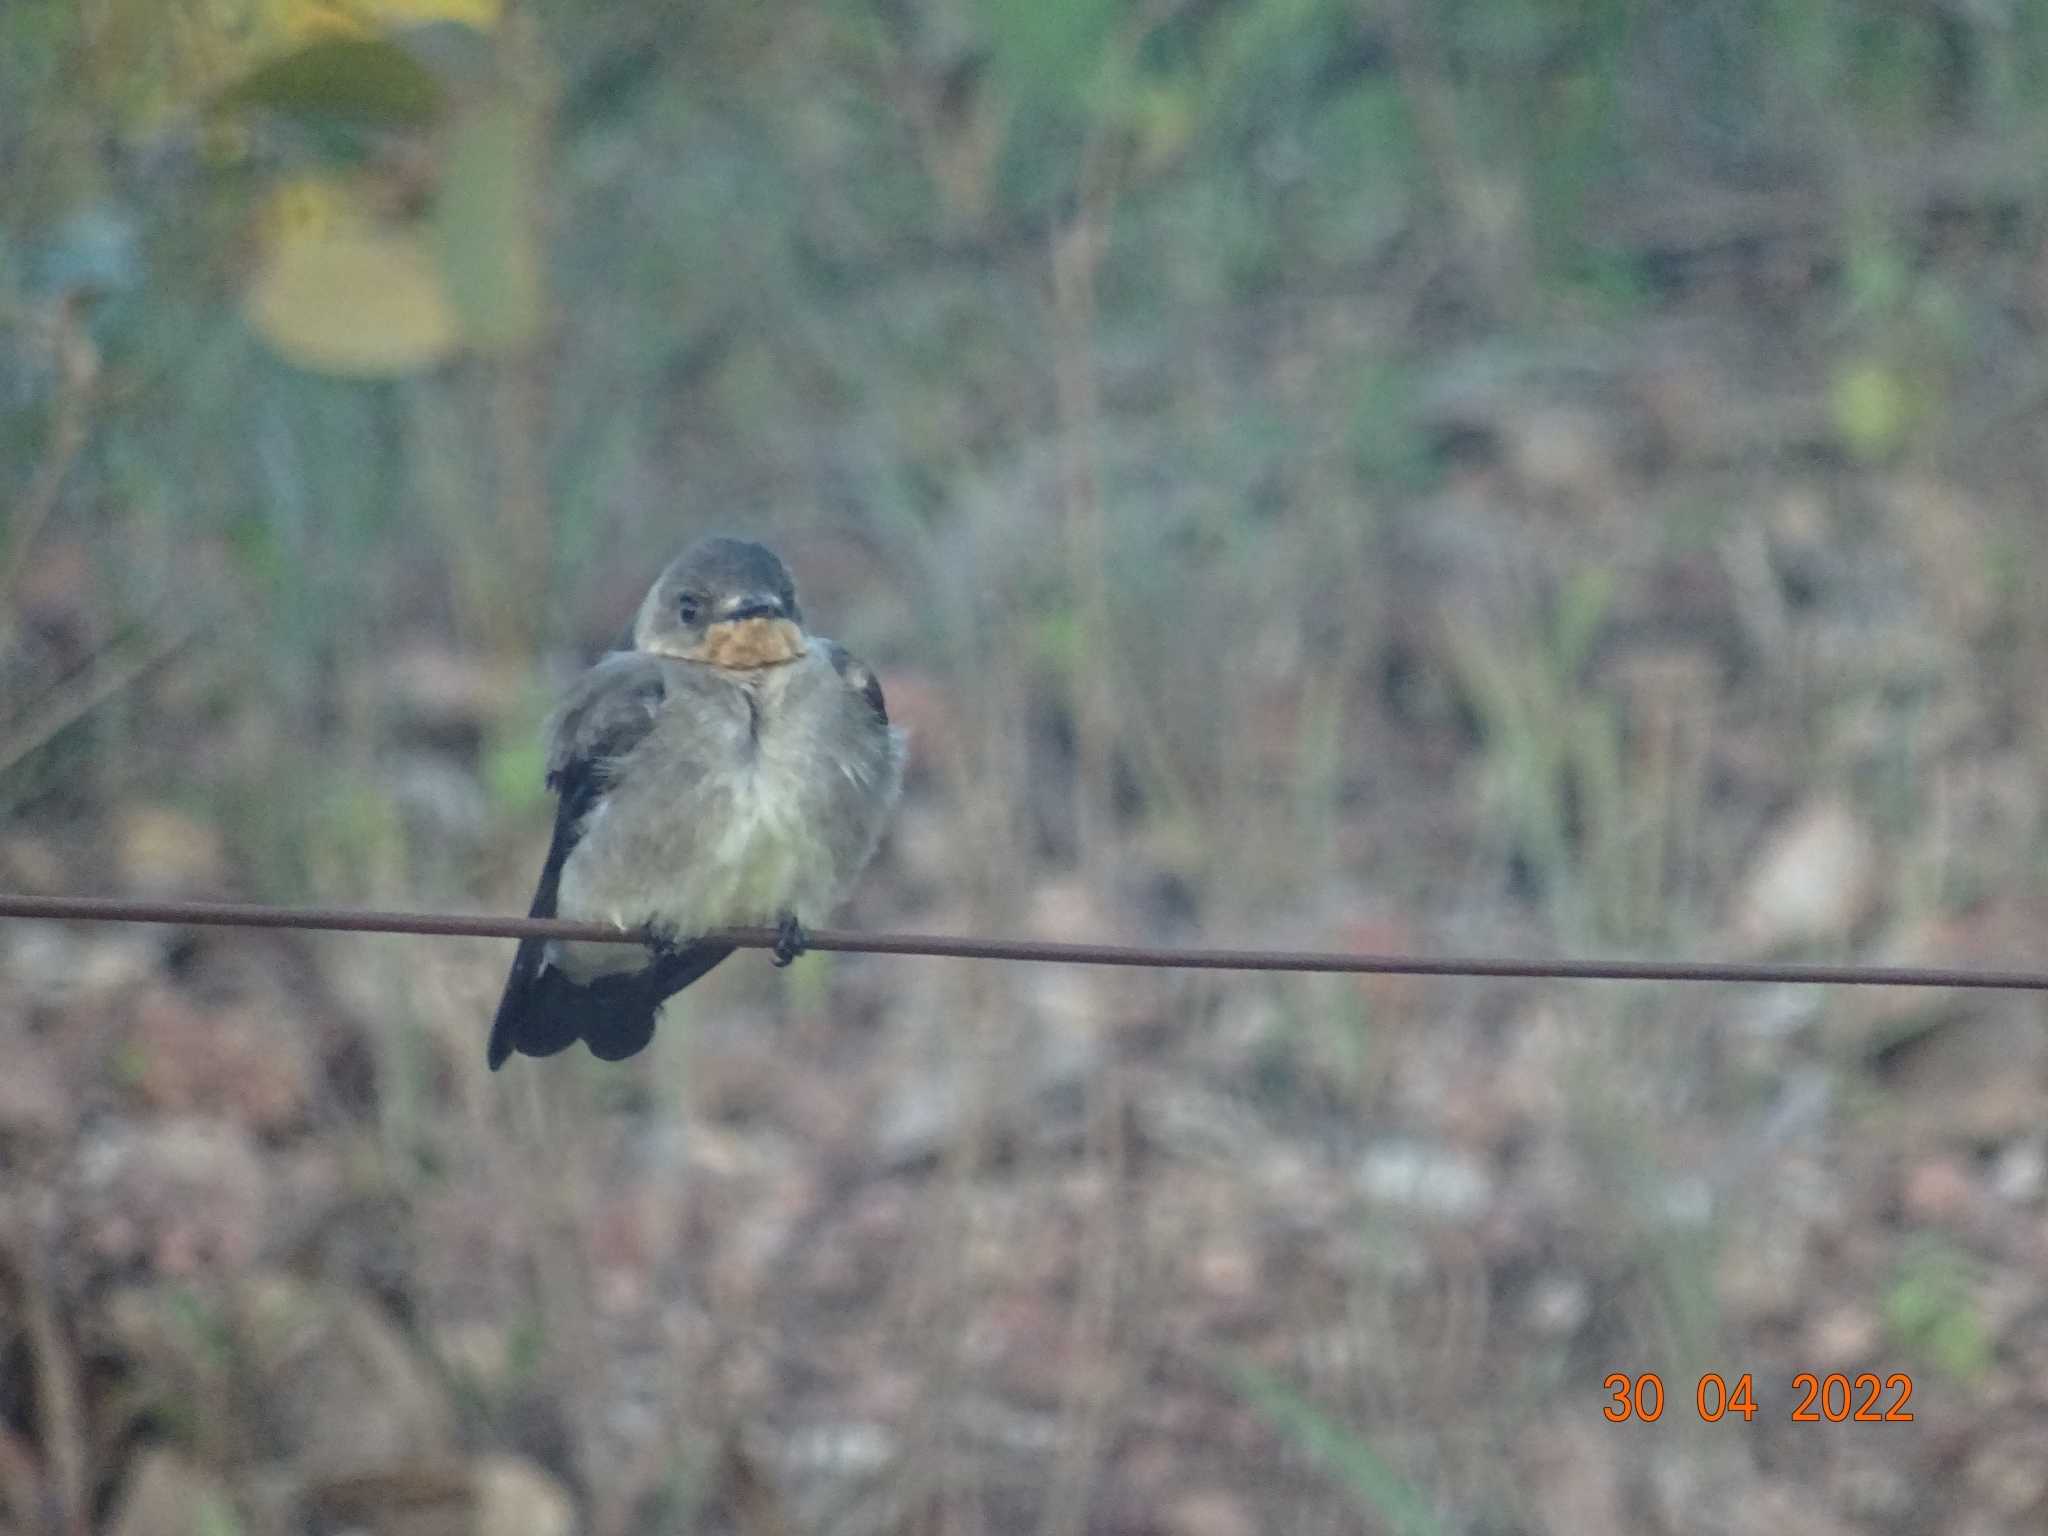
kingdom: Animalia
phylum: Chordata
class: Aves
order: Passeriformes
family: Hirundinidae
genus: Stelgidopteryx
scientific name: Stelgidopteryx ruficollis
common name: Southern rough-winged swallow
